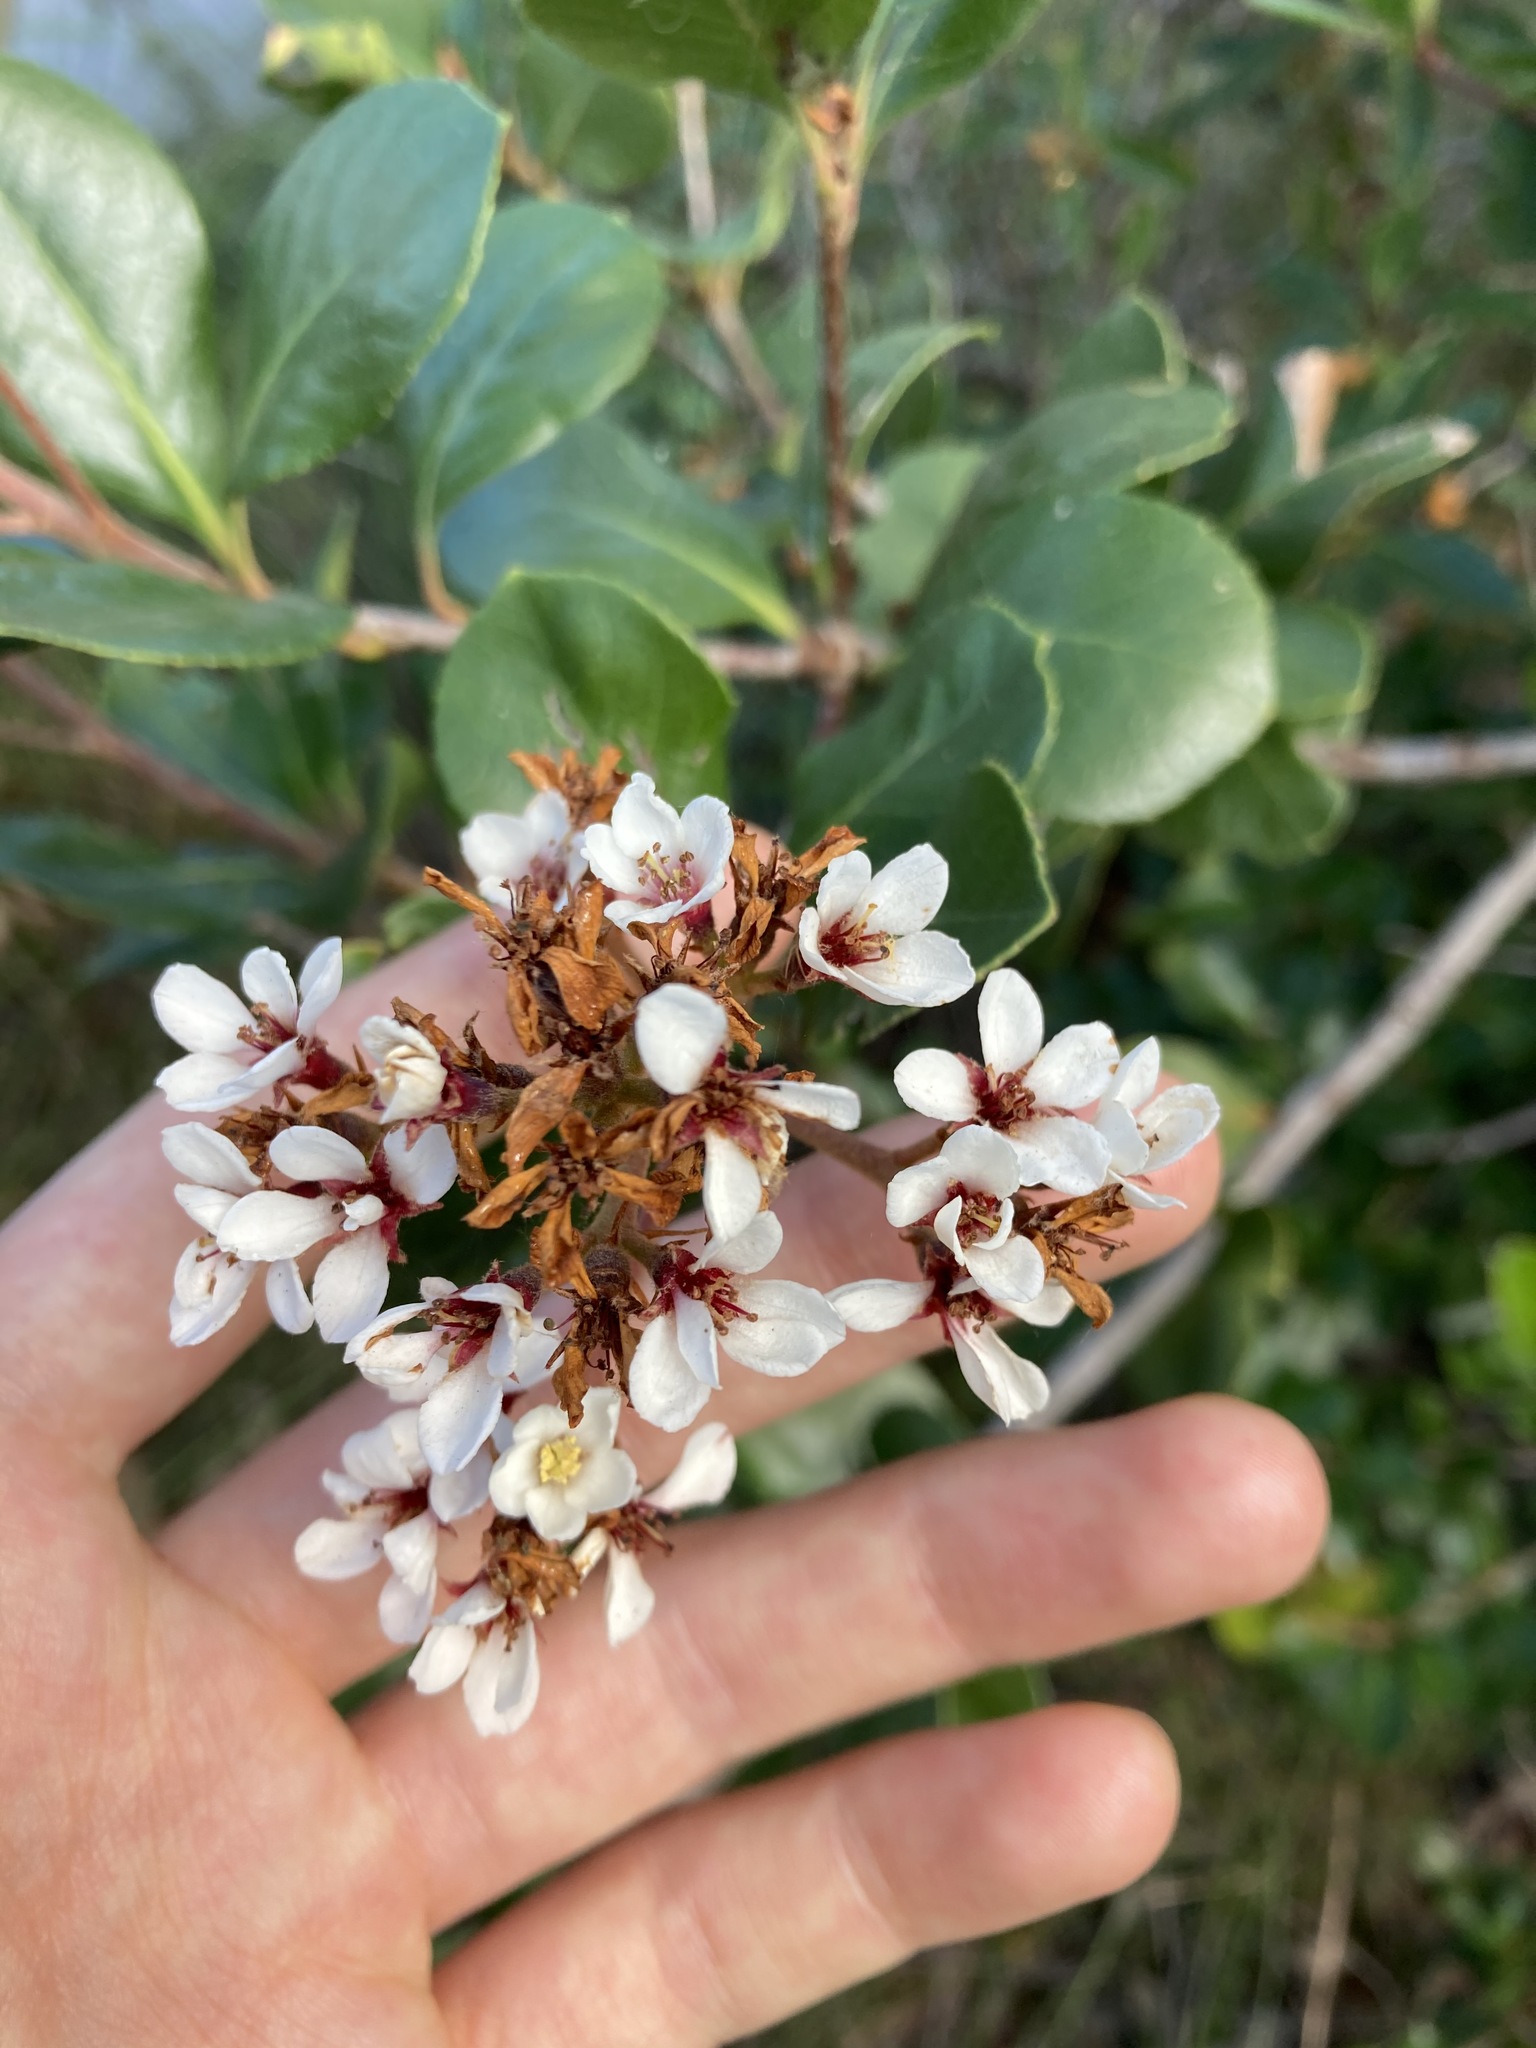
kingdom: Plantae
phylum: Tracheophyta
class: Magnoliopsida
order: Rosales
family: Rosaceae
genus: Rhaphiolepis
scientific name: Rhaphiolepis indica
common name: India-hawthorn
